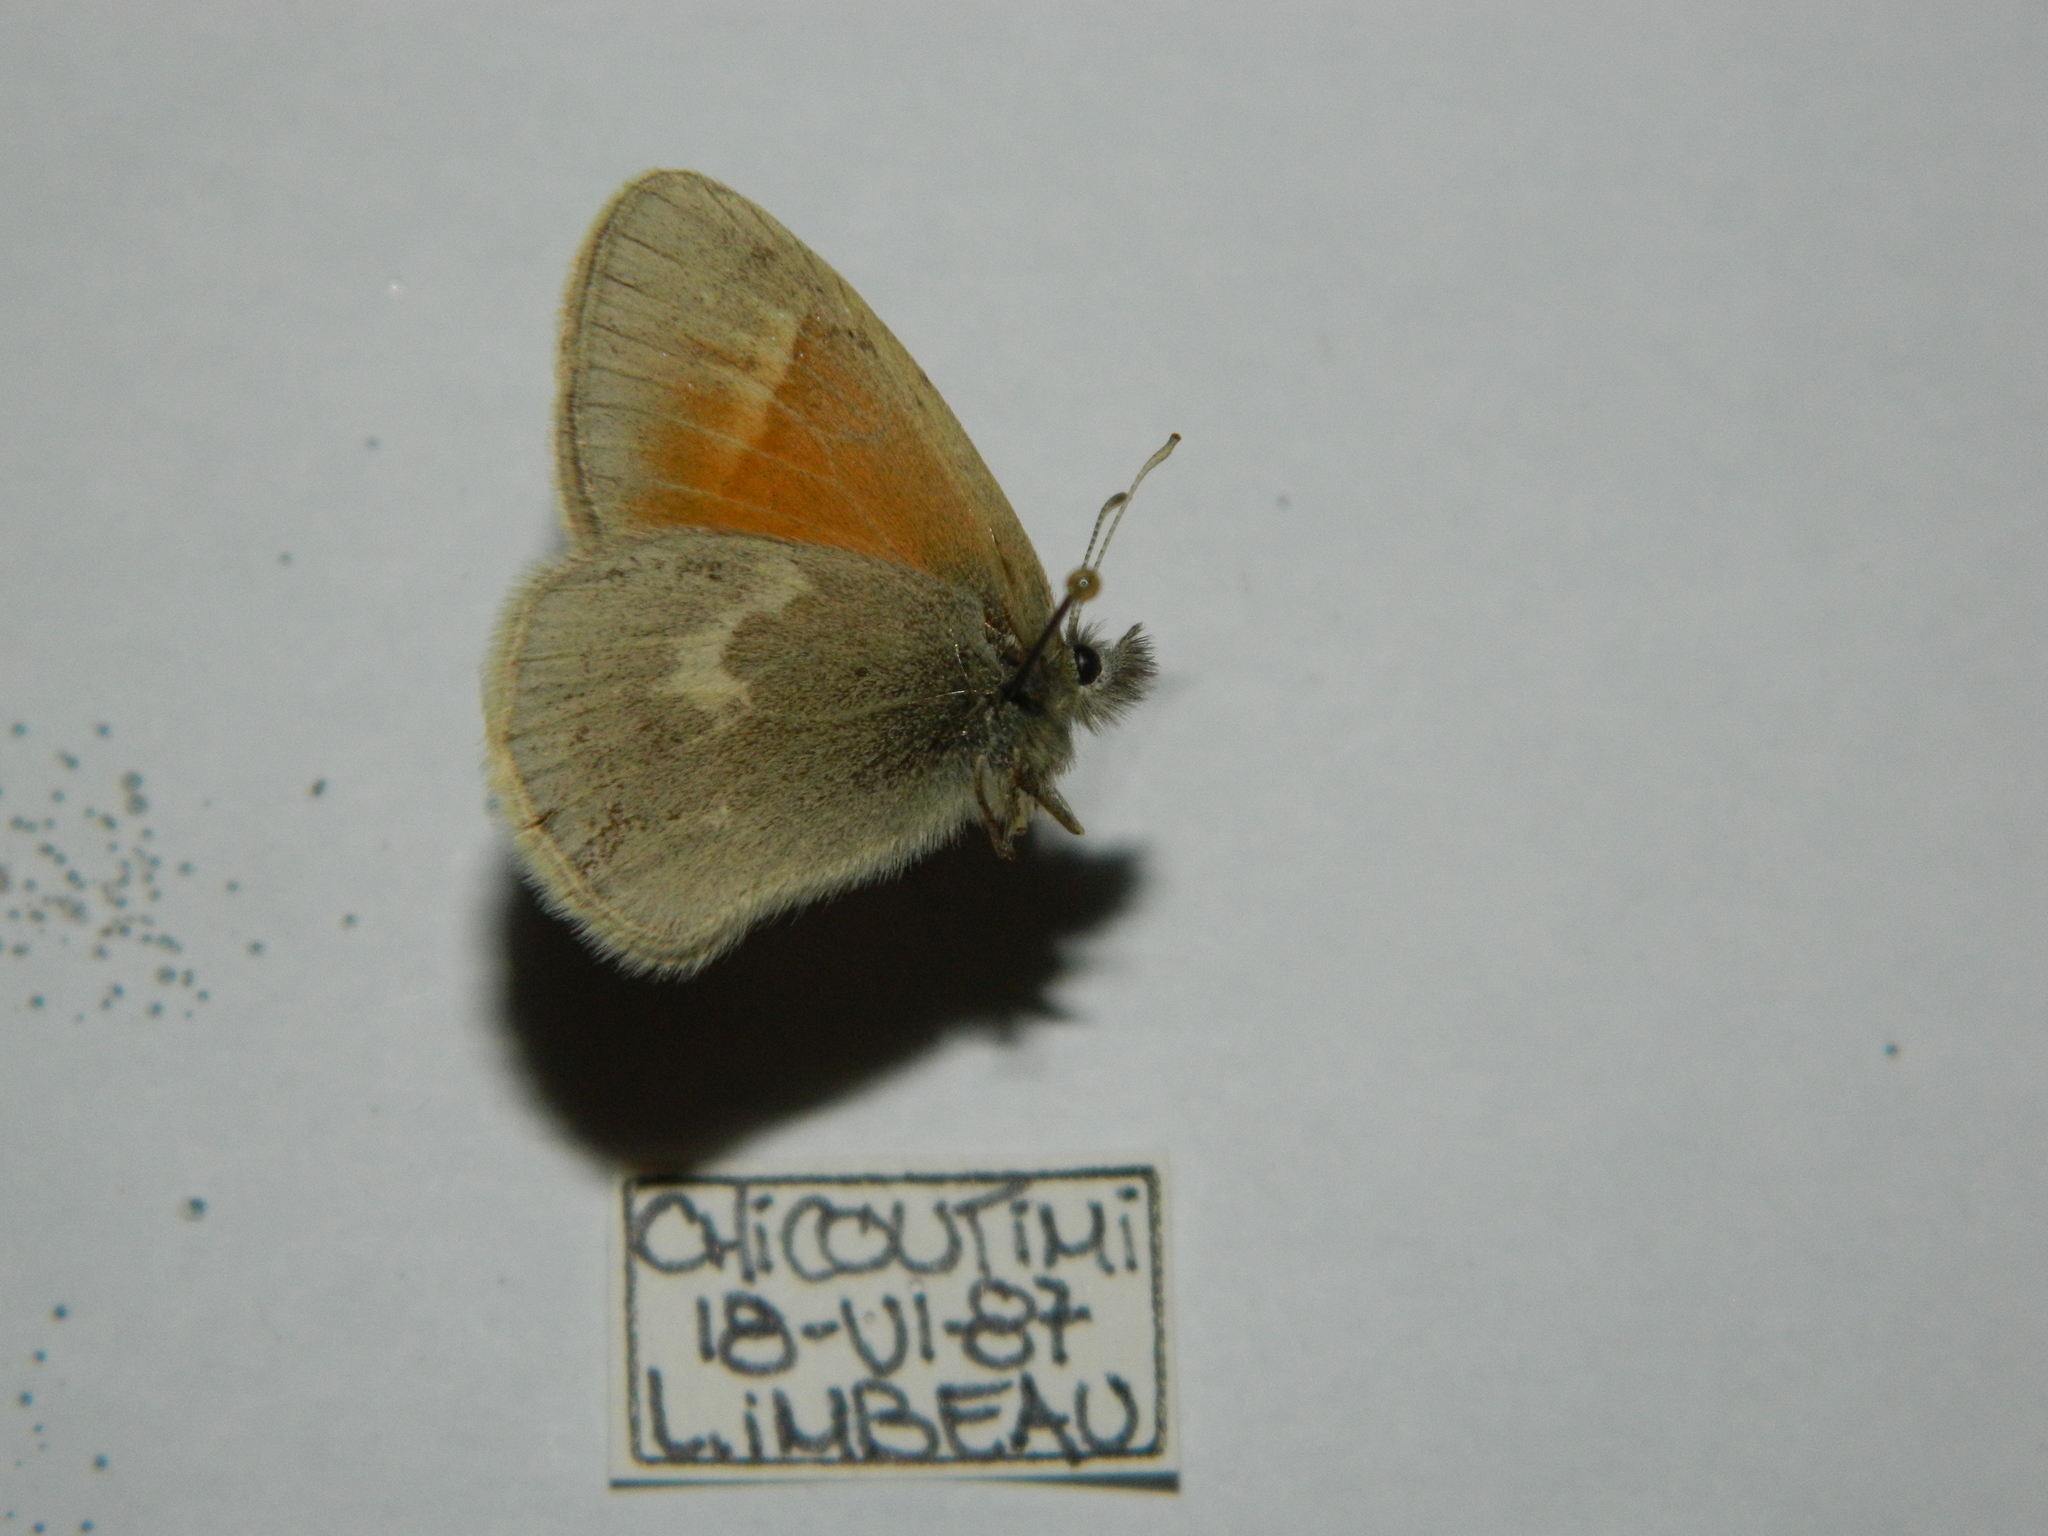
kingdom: Animalia
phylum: Arthropoda
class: Insecta
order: Lepidoptera
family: Nymphalidae
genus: Coenonympha
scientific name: Coenonympha california
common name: Common ringlet
